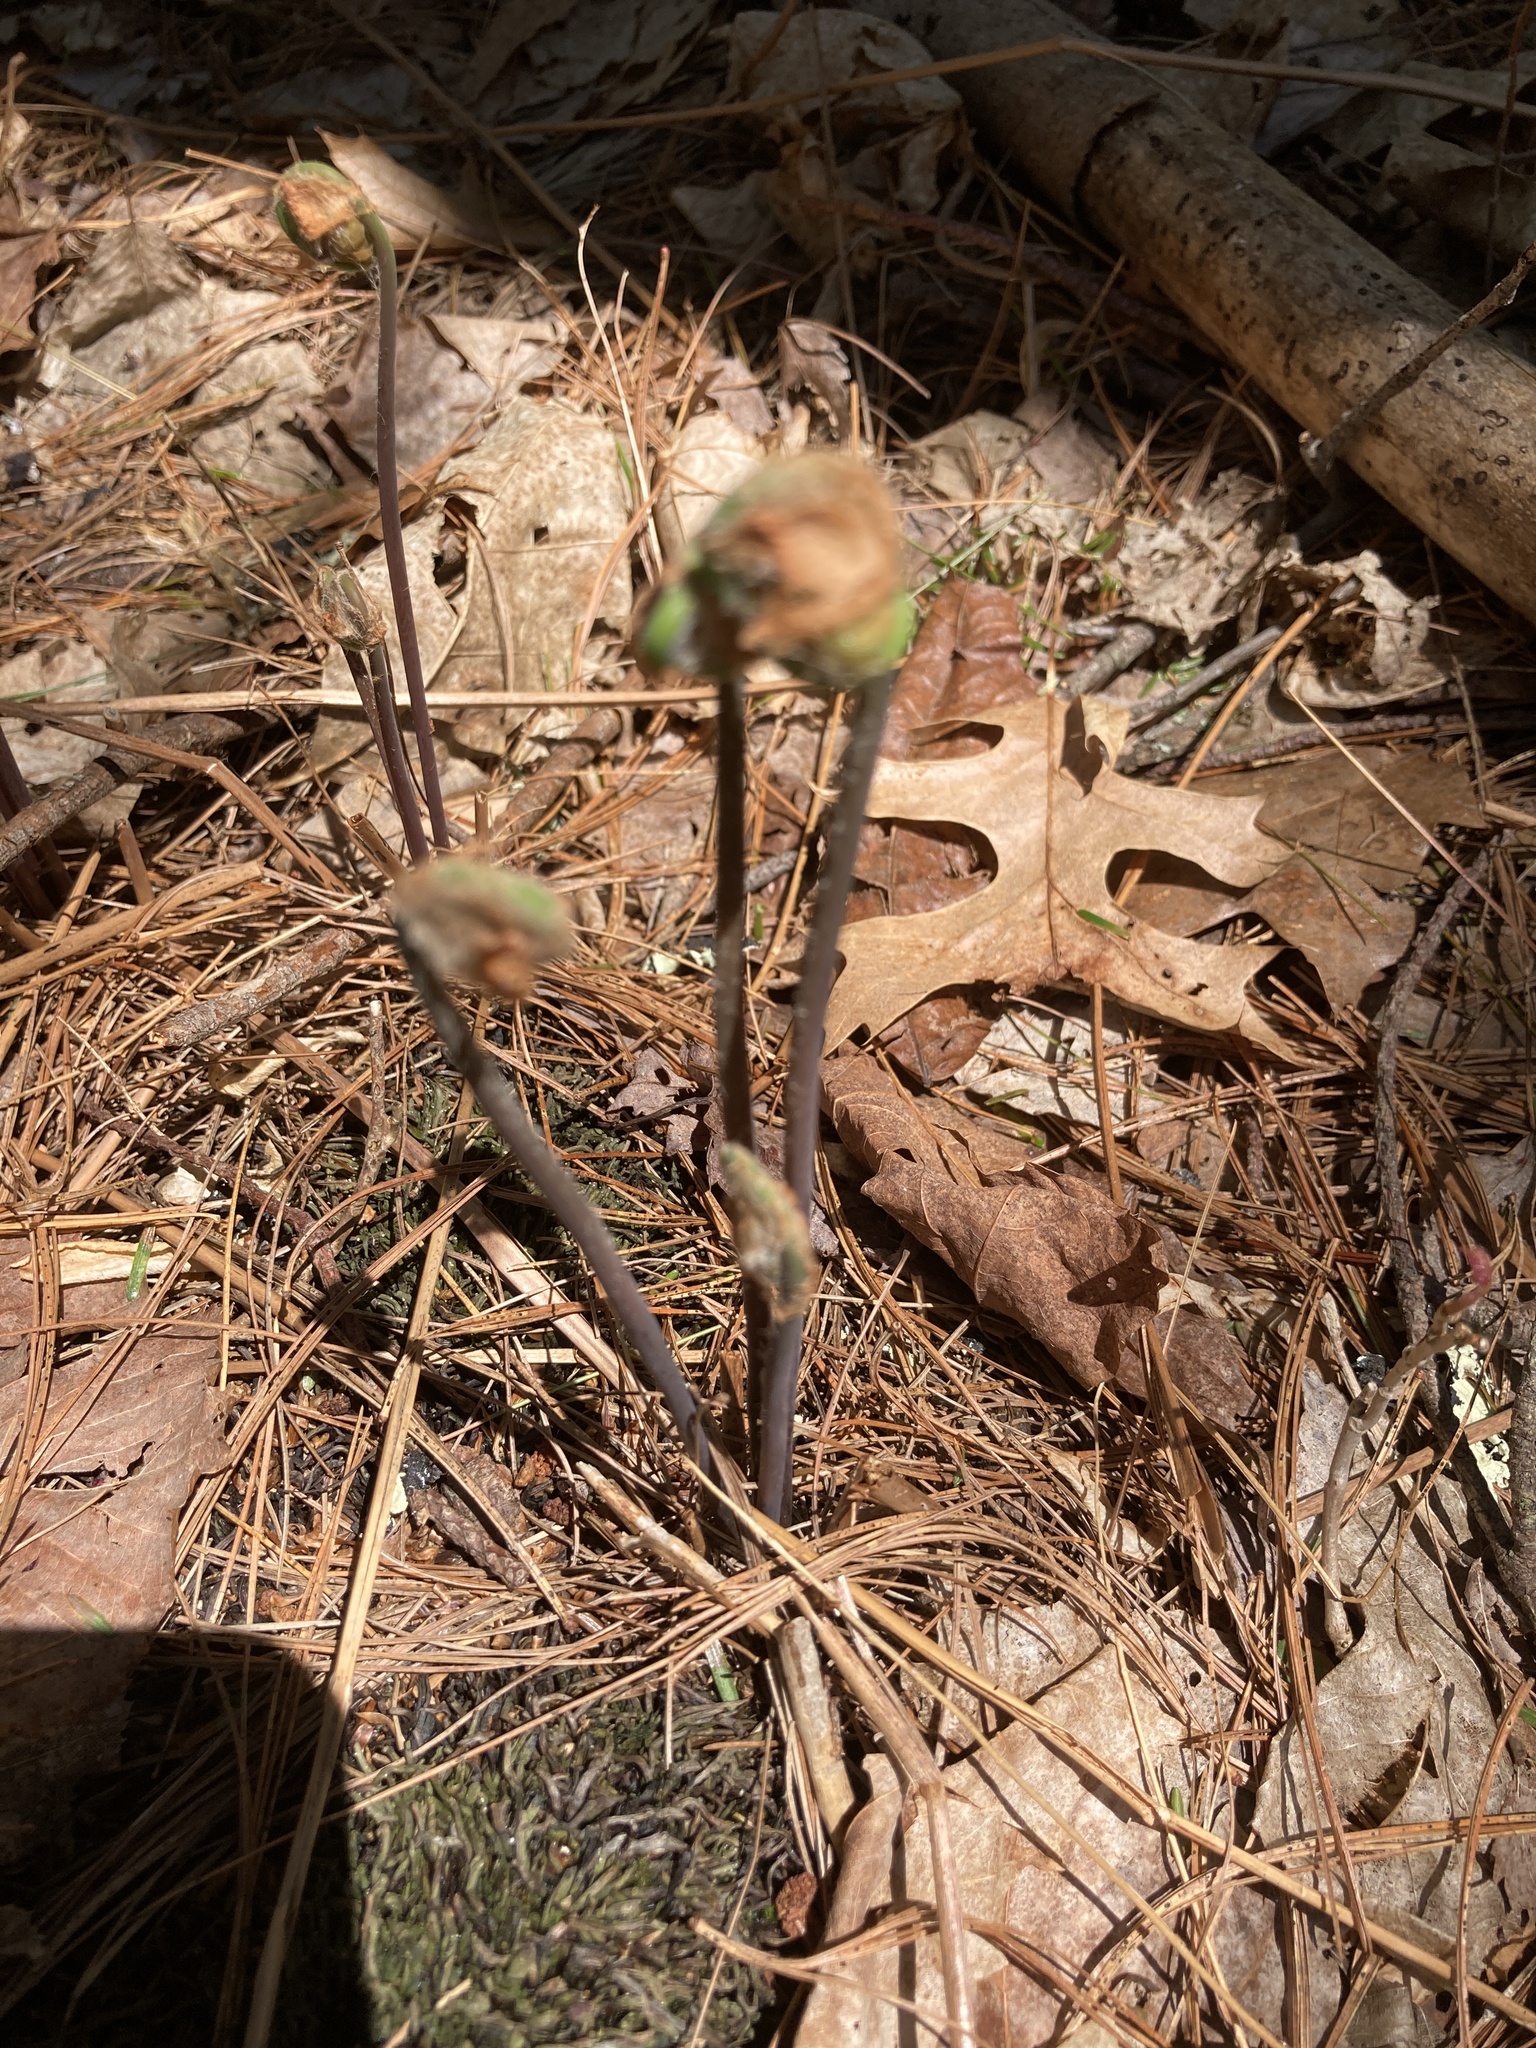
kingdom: Plantae
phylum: Tracheophyta
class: Polypodiopsida
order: Osmundales
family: Osmundaceae
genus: Osmunda
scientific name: Osmunda spectabilis
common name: American royal fern
